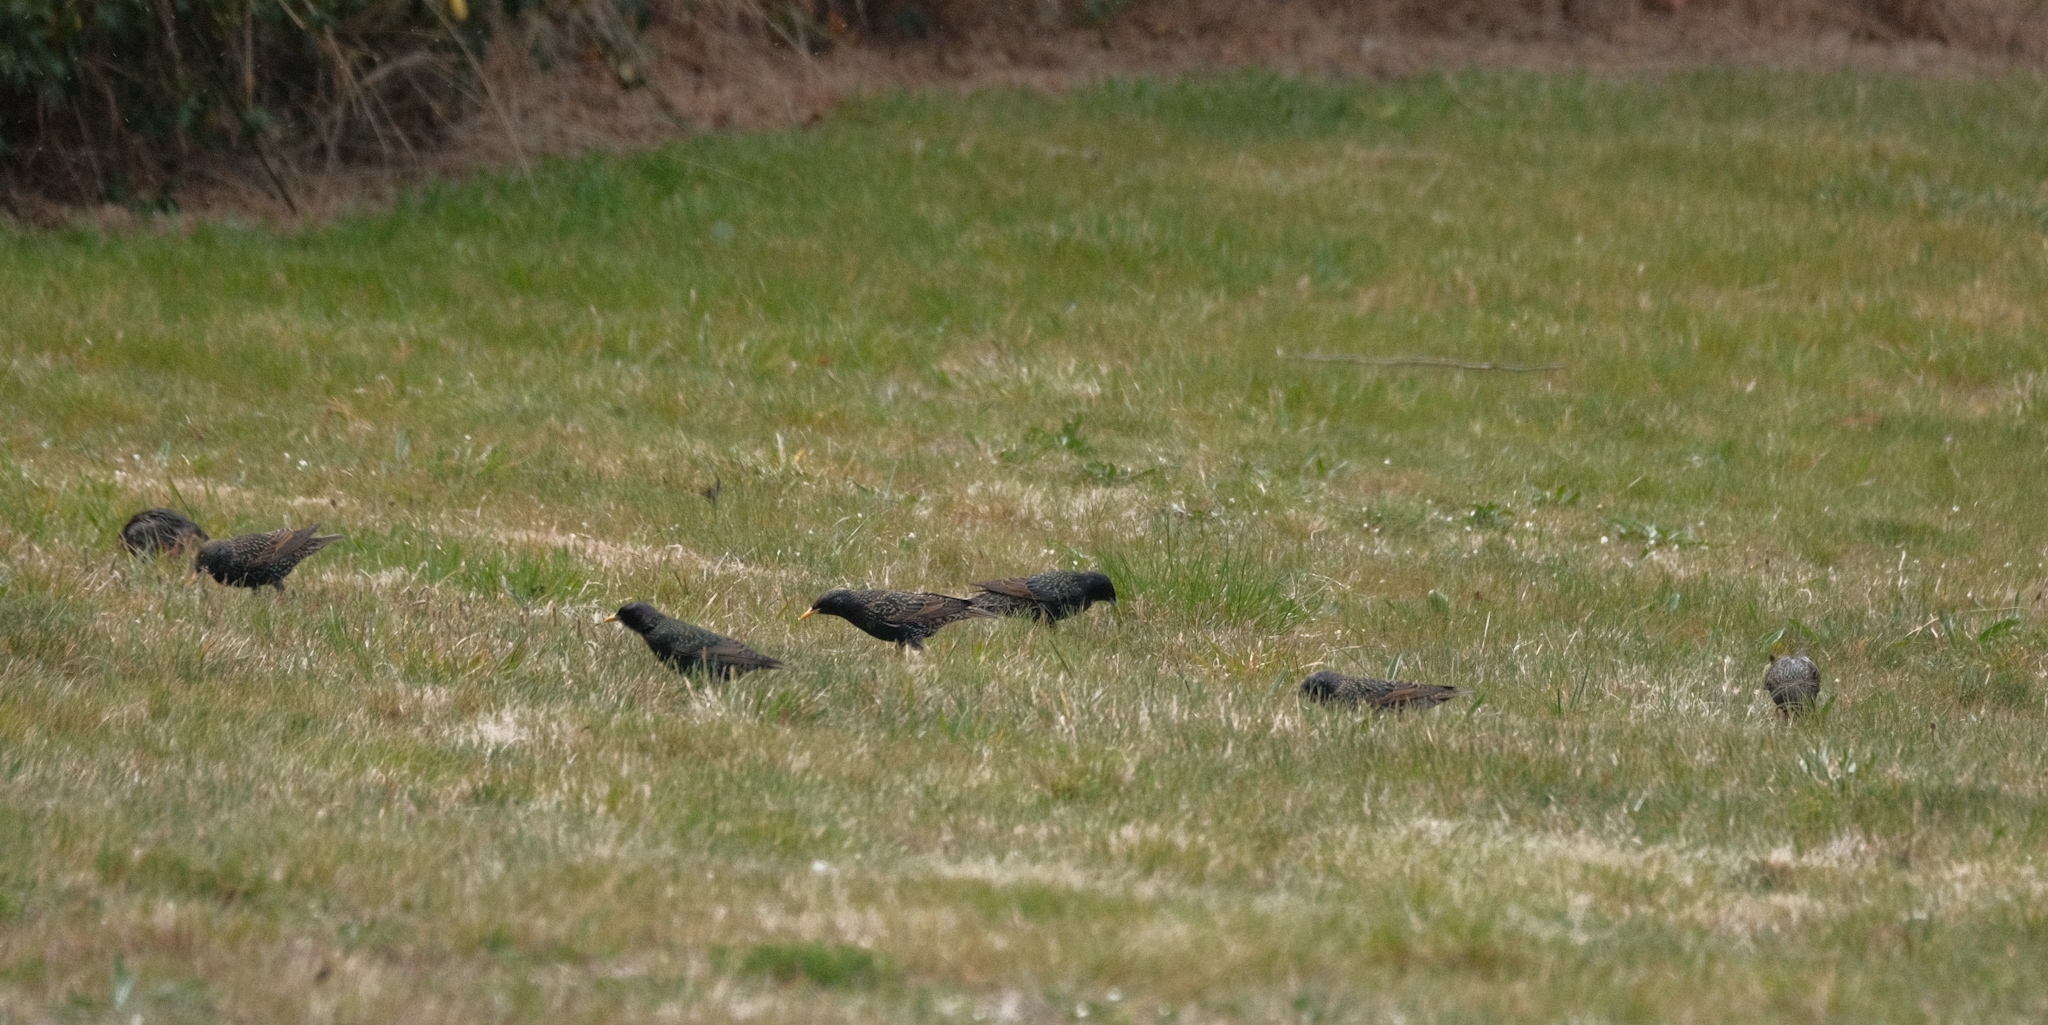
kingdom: Animalia
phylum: Chordata
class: Aves
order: Passeriformes
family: Sturnidae
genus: Sturnus
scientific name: Sturnus vulgaris
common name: Common starling
